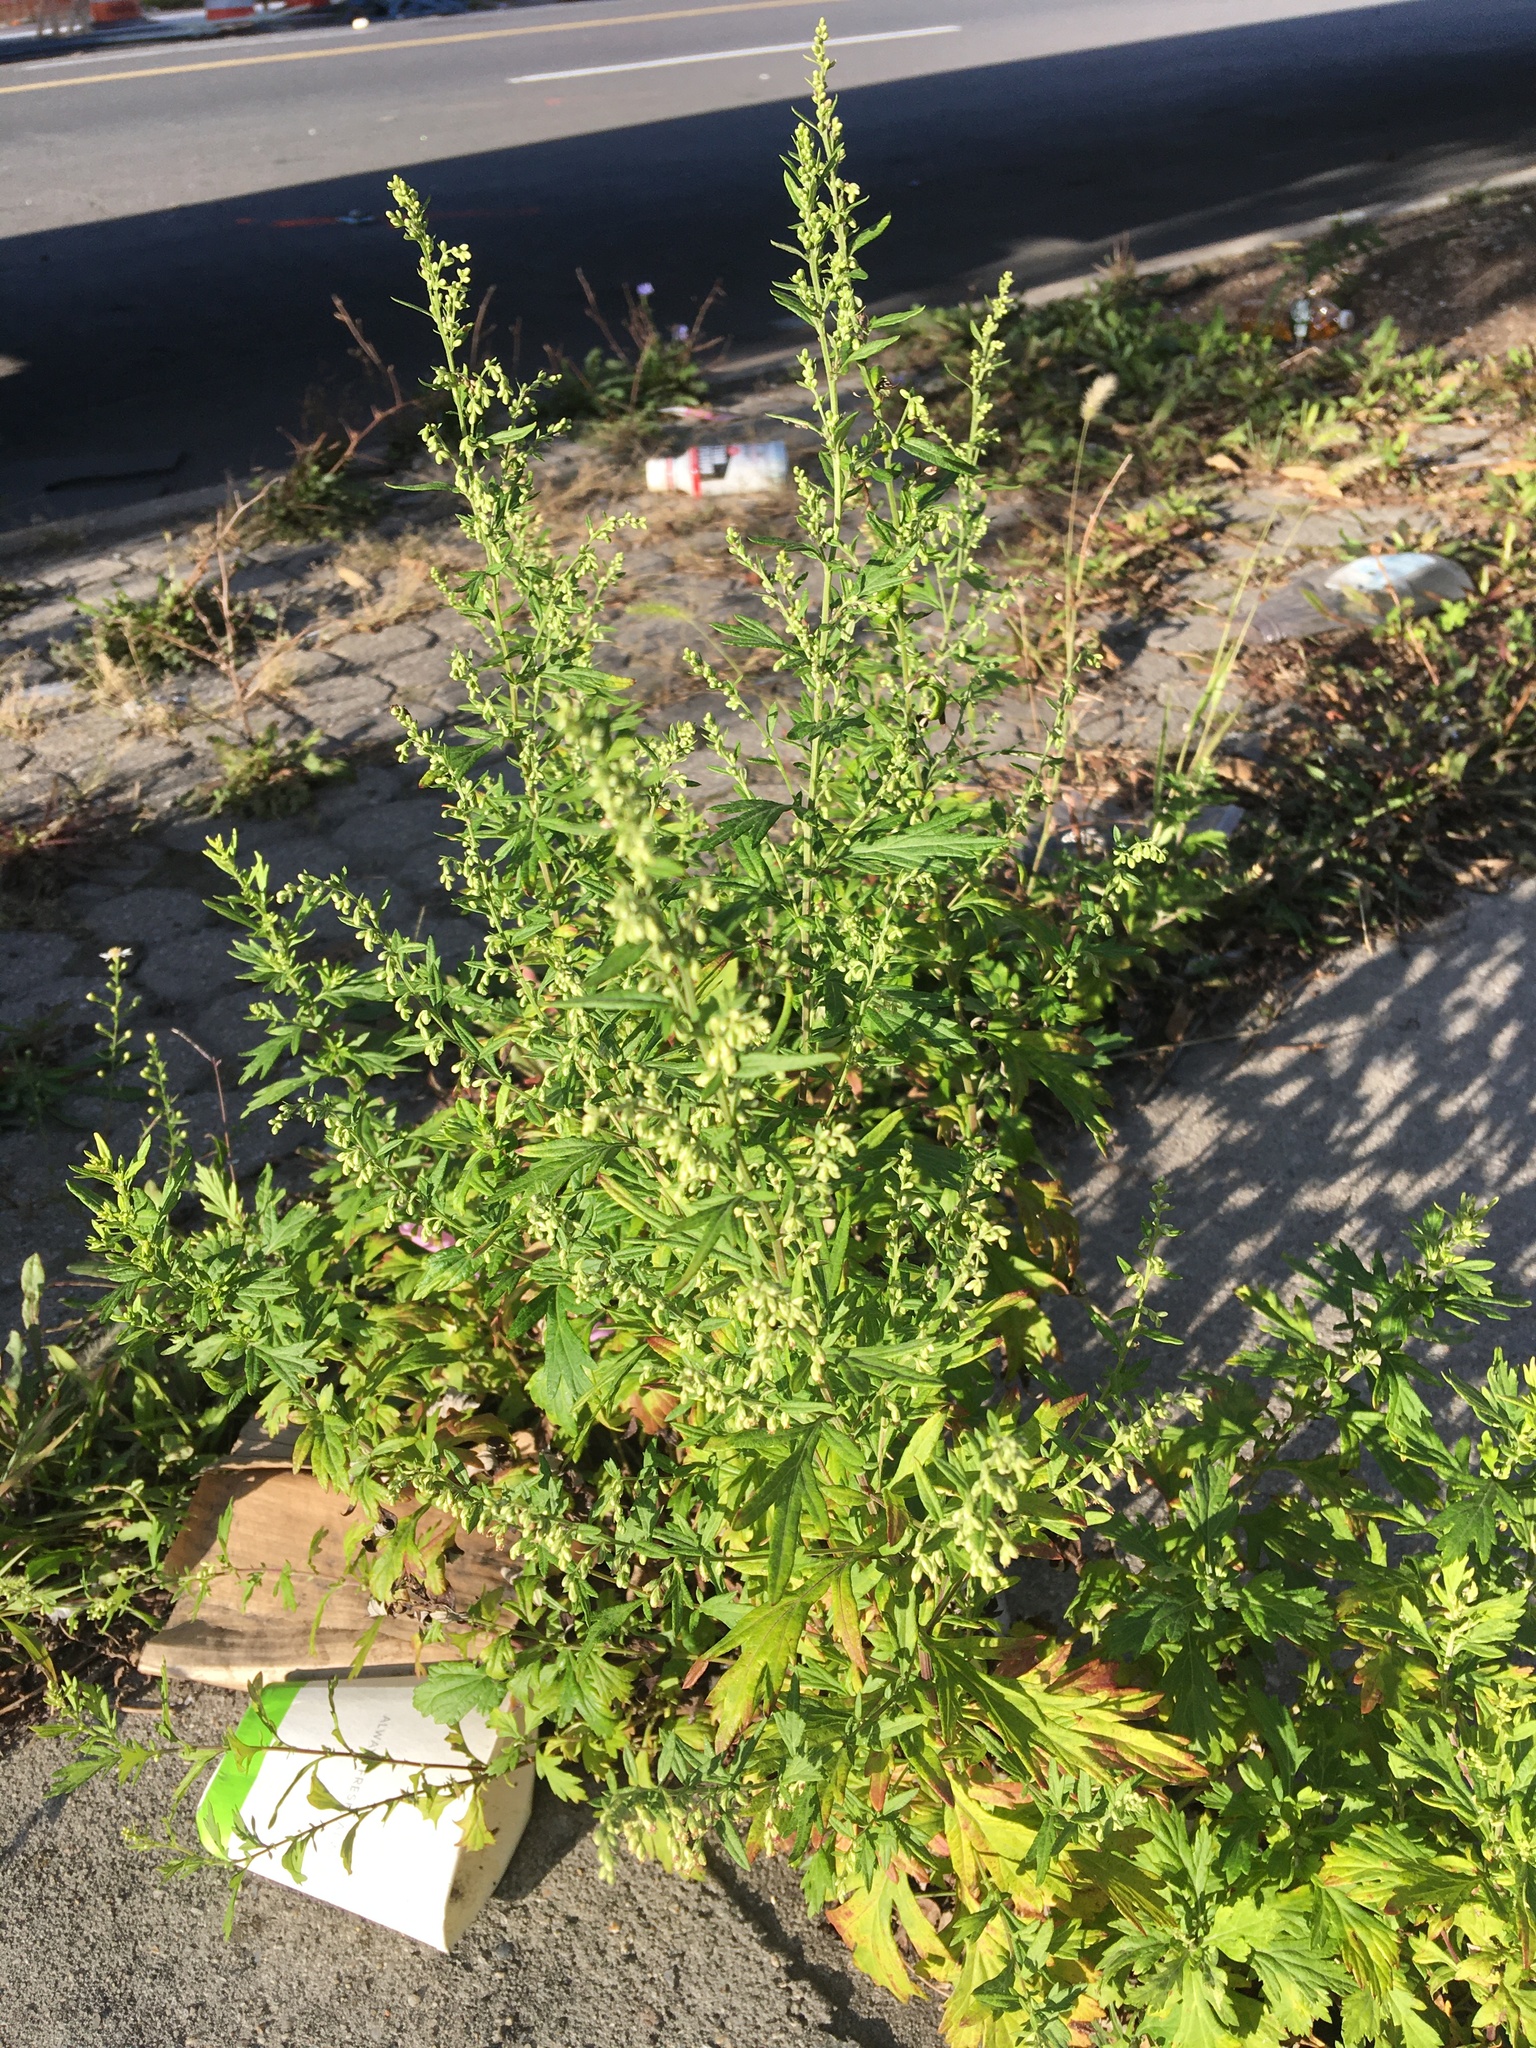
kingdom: Plantae
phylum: Tracheophyta
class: Magnoliopsida
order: Asterales
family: Asteraceae
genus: Artemisia
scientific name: Artemisia vulgaris
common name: Mugwort
